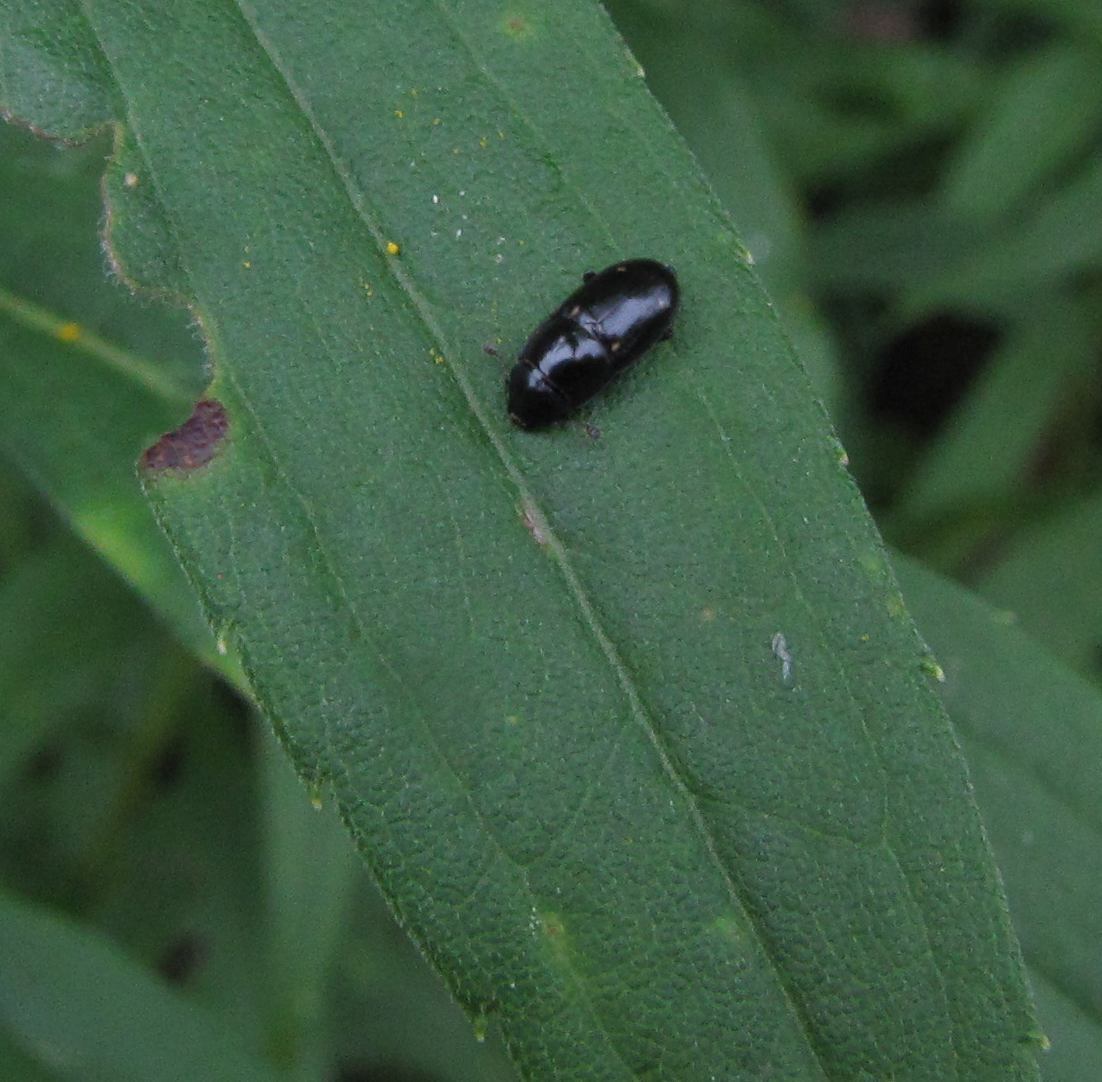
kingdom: Animalia
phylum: Arthropoda
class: Insecta
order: Coleoptera
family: Nitidulidae
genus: Glischrochilus
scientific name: Glischrochilus siepmanni
